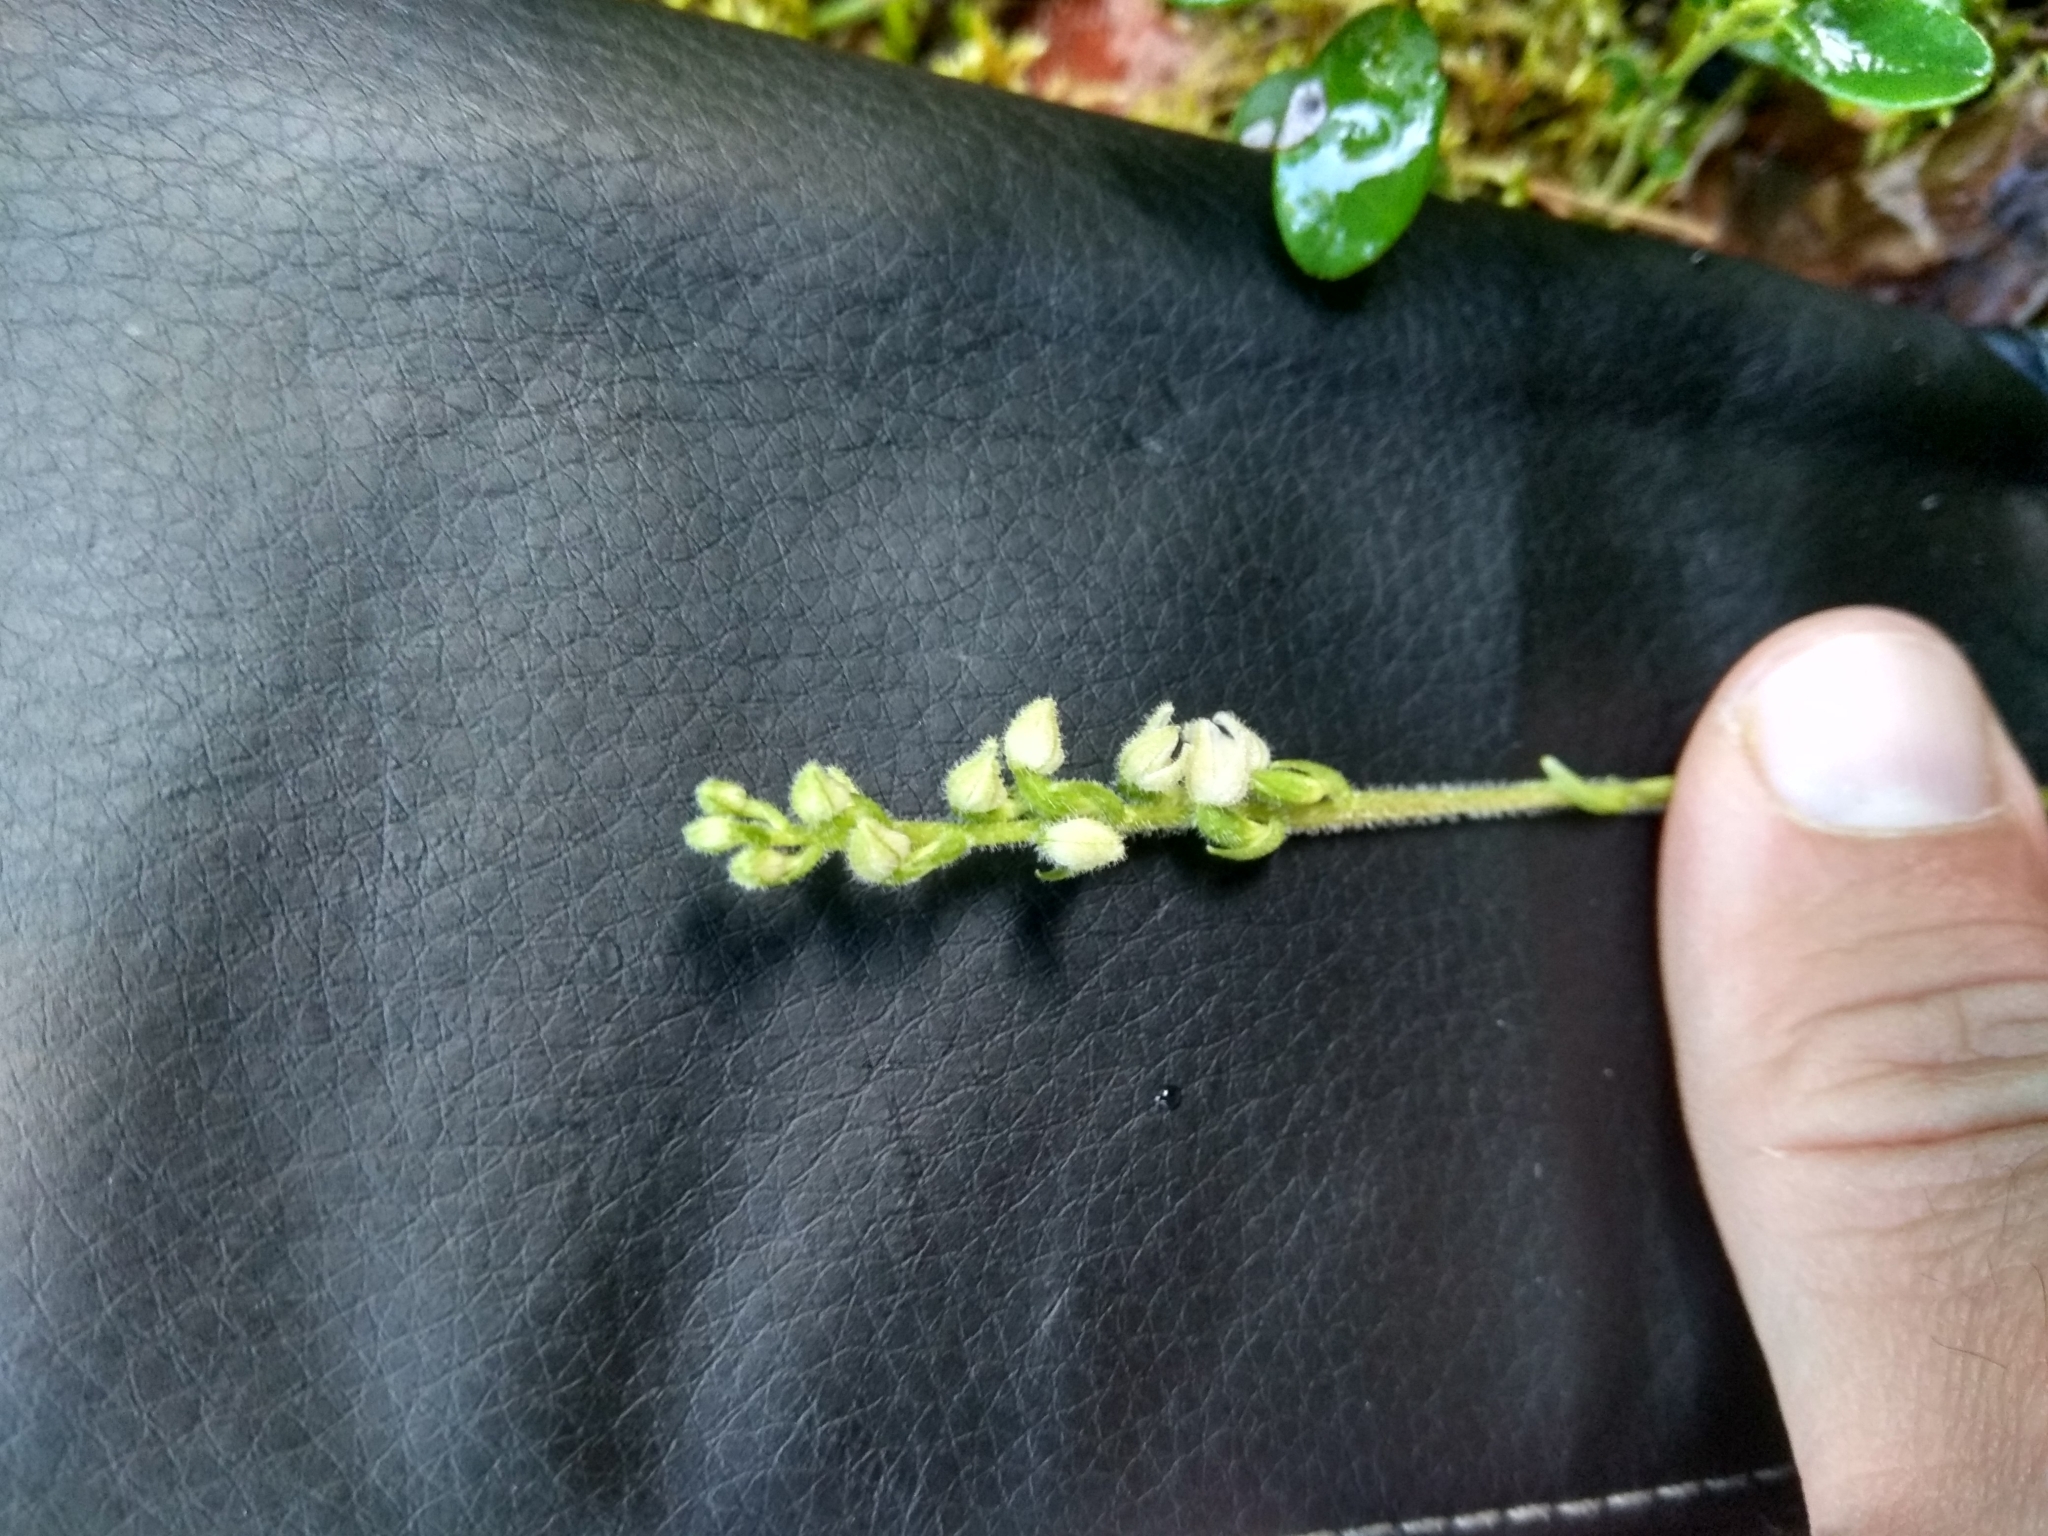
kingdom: Plantae
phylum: Tracheophyta
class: Liliopsida
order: Asparagales
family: Orchidaceae
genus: Goodyera
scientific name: Goodyera repens
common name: Creeping lady's-tresses
